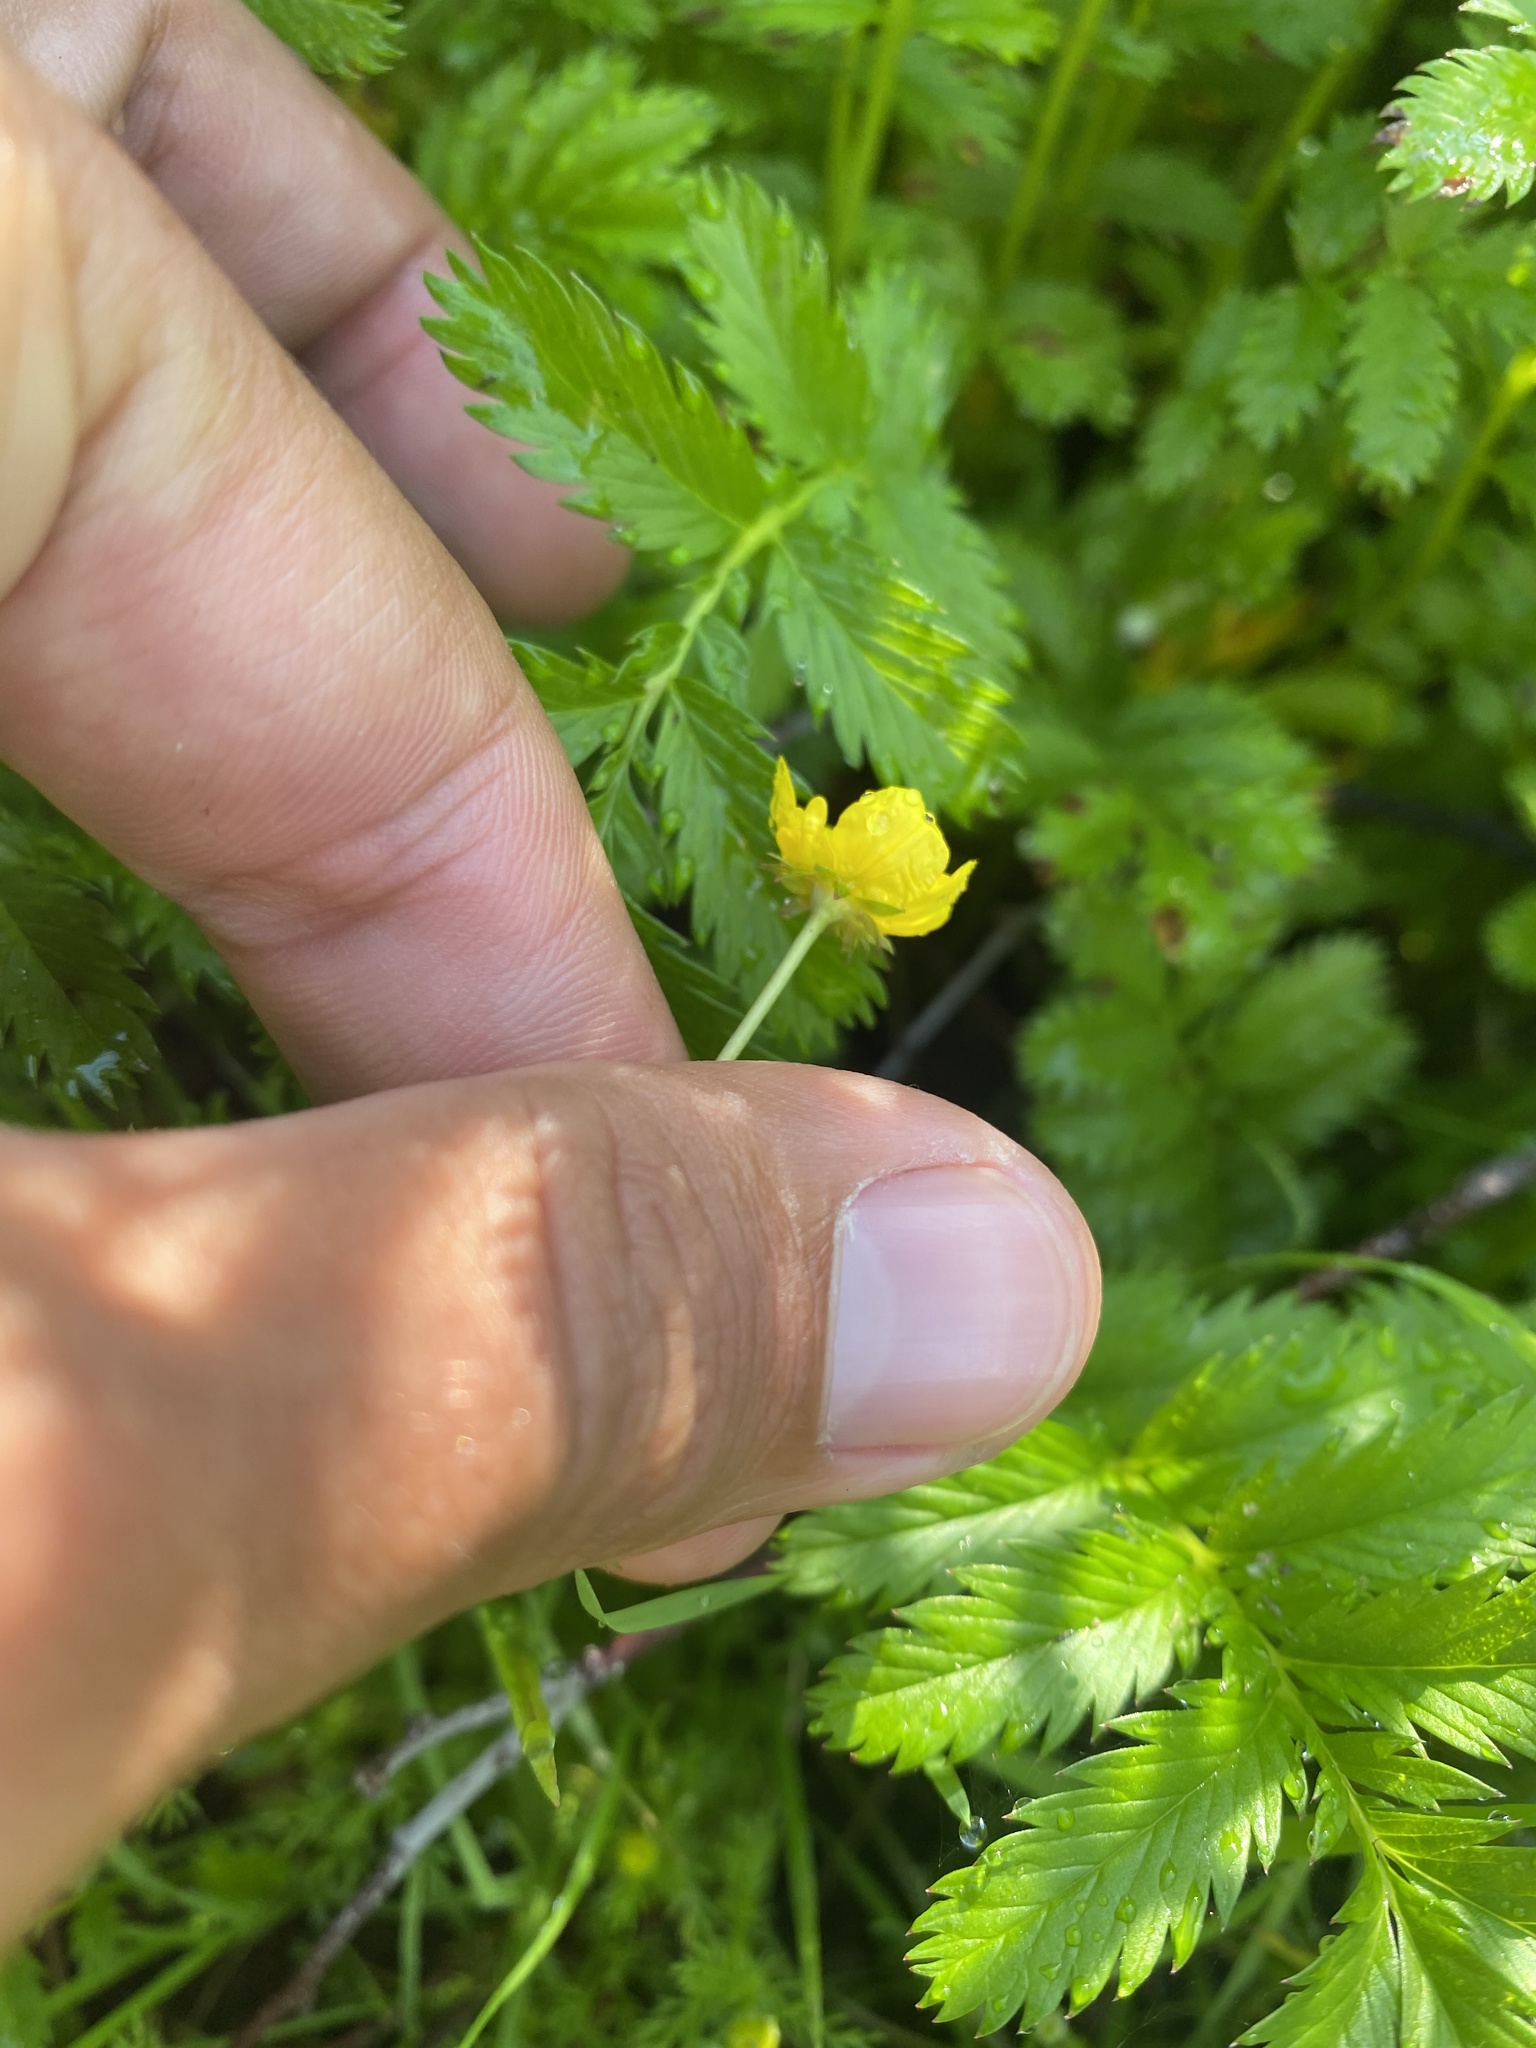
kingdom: Plantae
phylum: Tracheophyta
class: Magnoliopsida
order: Rosales
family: Rosaceae
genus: Argentina
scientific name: Argentina anserina
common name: Common silverweed
